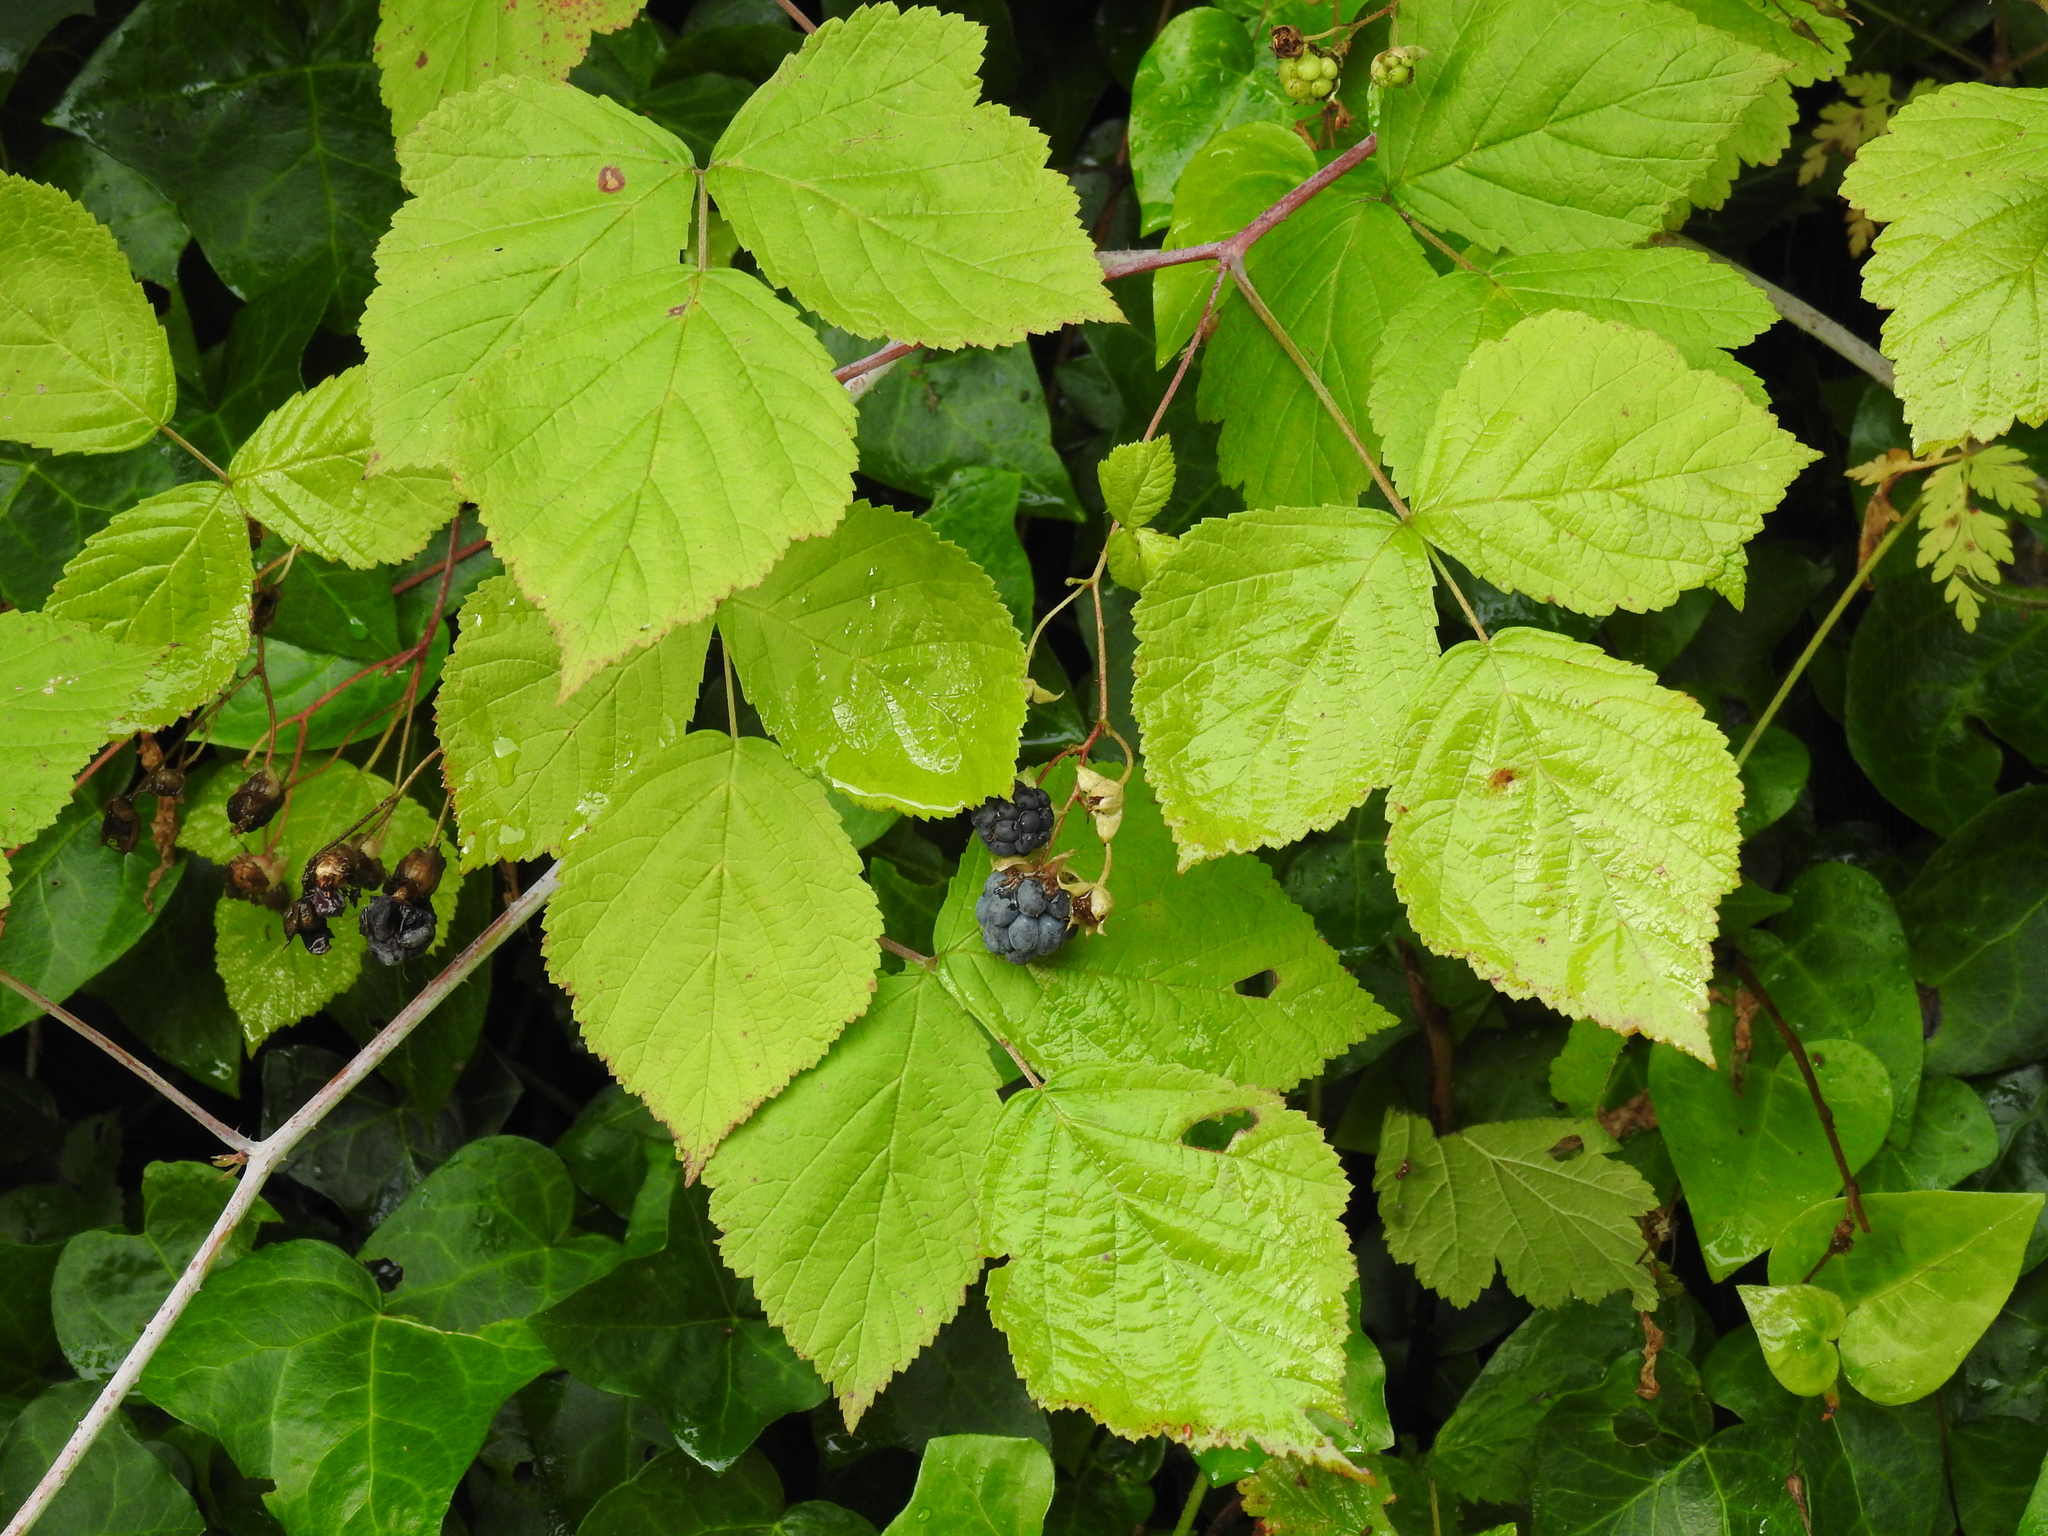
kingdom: Plantae
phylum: Tracheophyta
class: Magnoliopsida
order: Rosales
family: Rosaceae
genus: Rubus
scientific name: Rubus caesius
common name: Dewberry
